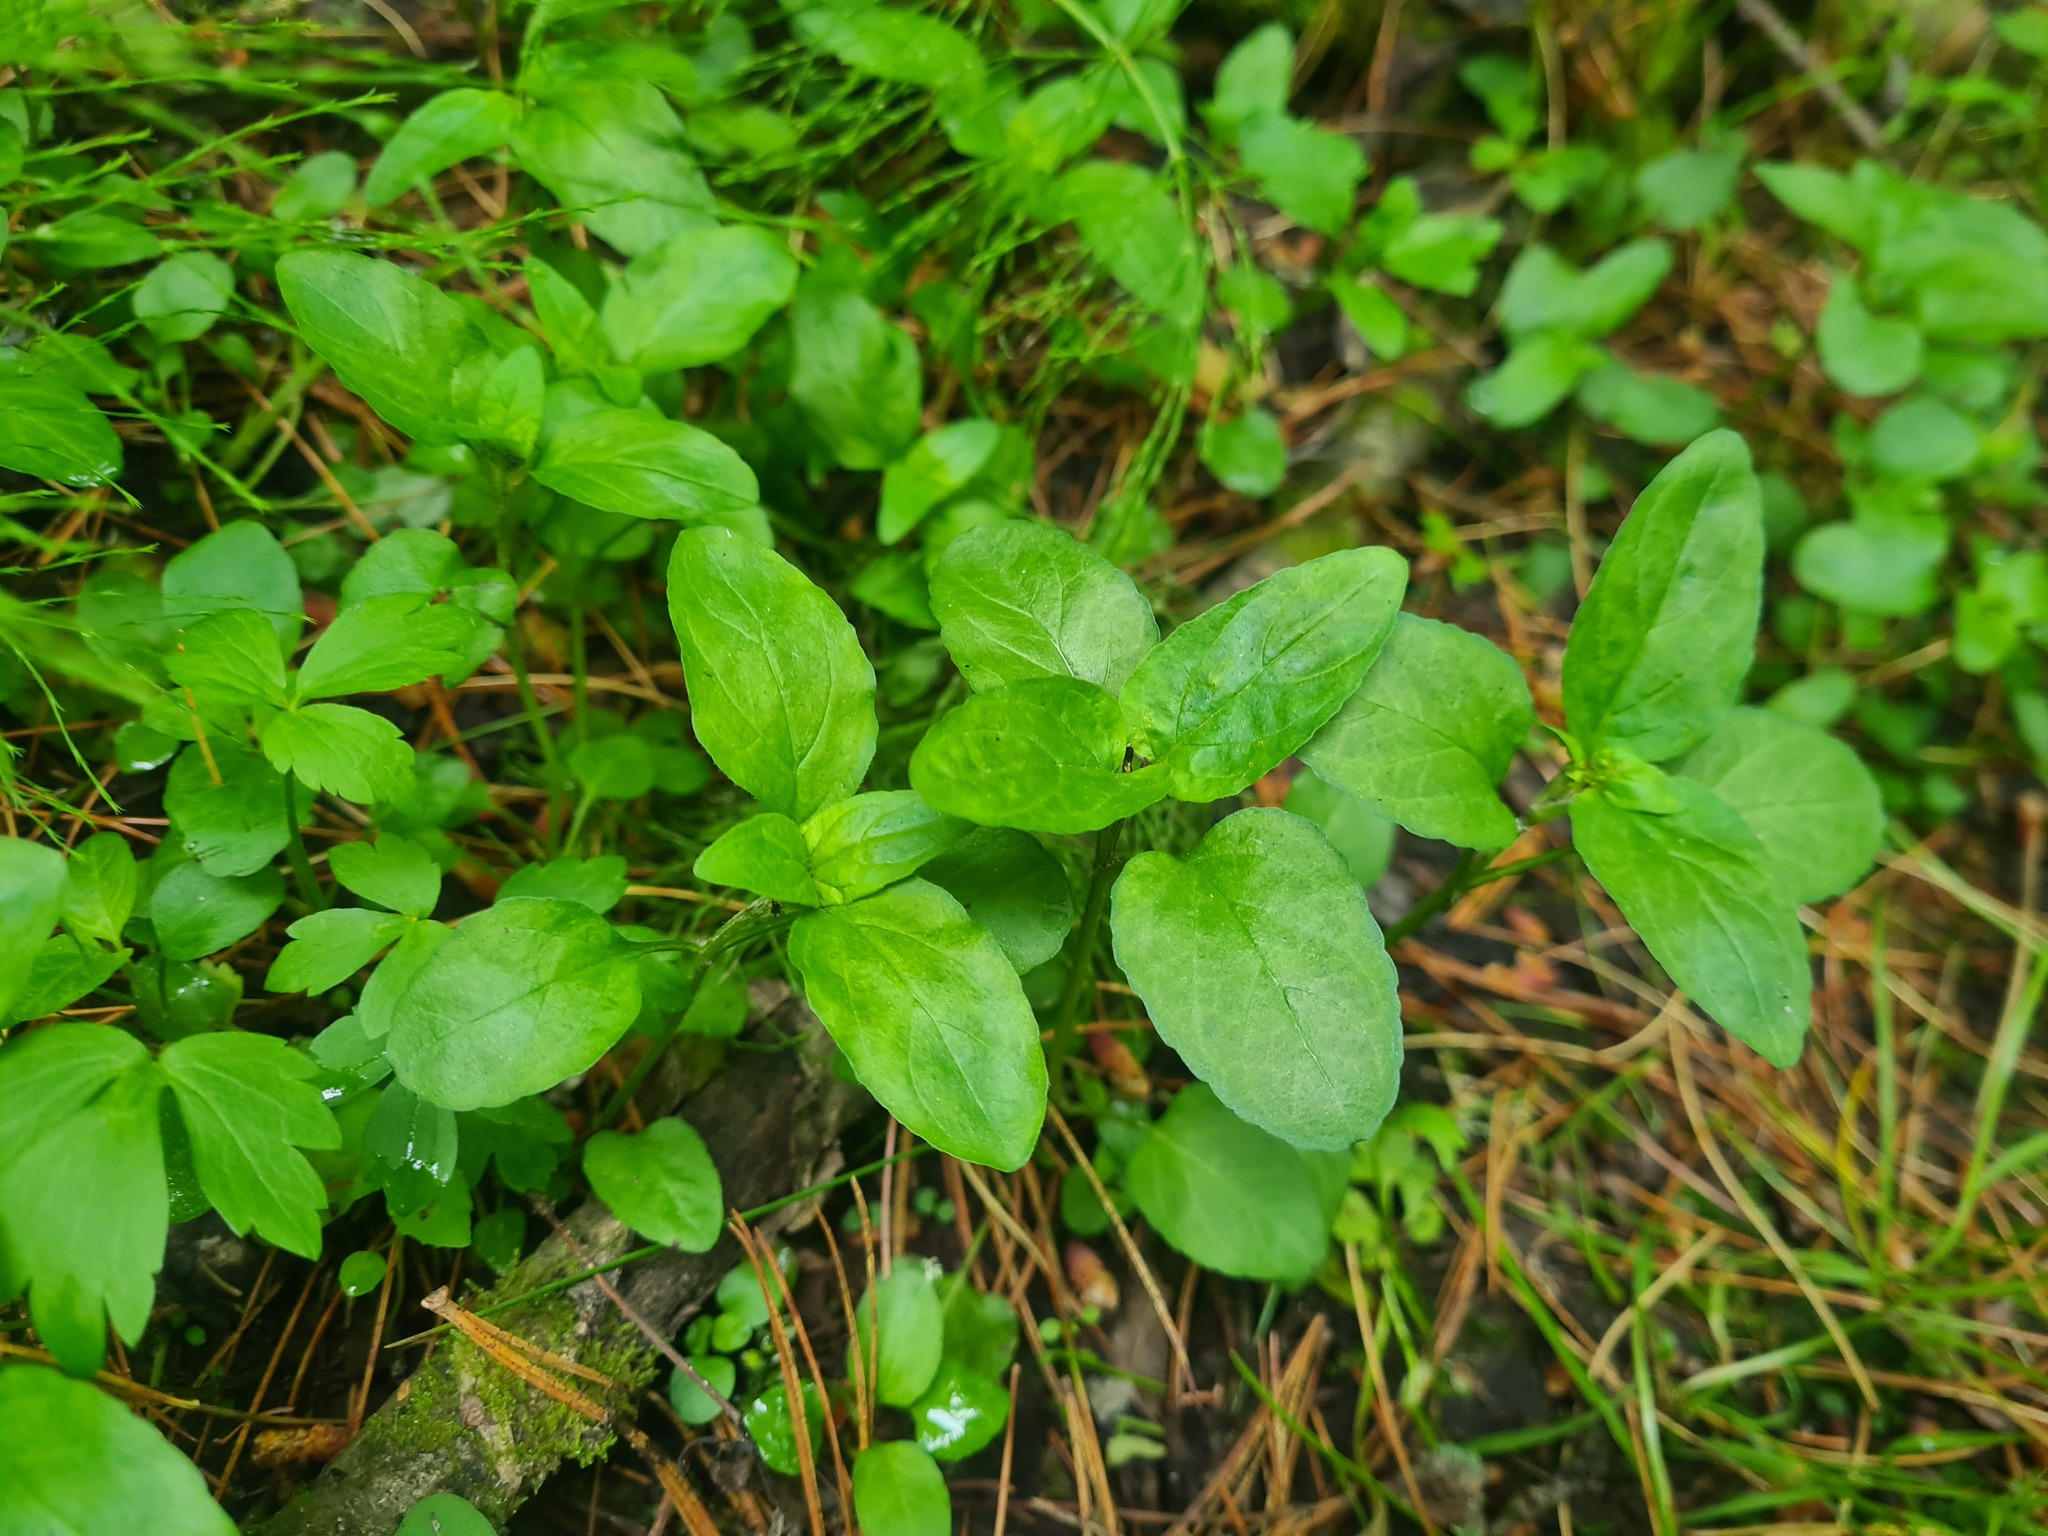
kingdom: Plantae
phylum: Tracheophyta
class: Magnoliopsida
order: Lamiales
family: Lamiaceae
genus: Prunella
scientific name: Prunella vulgaris
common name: Heal-all
